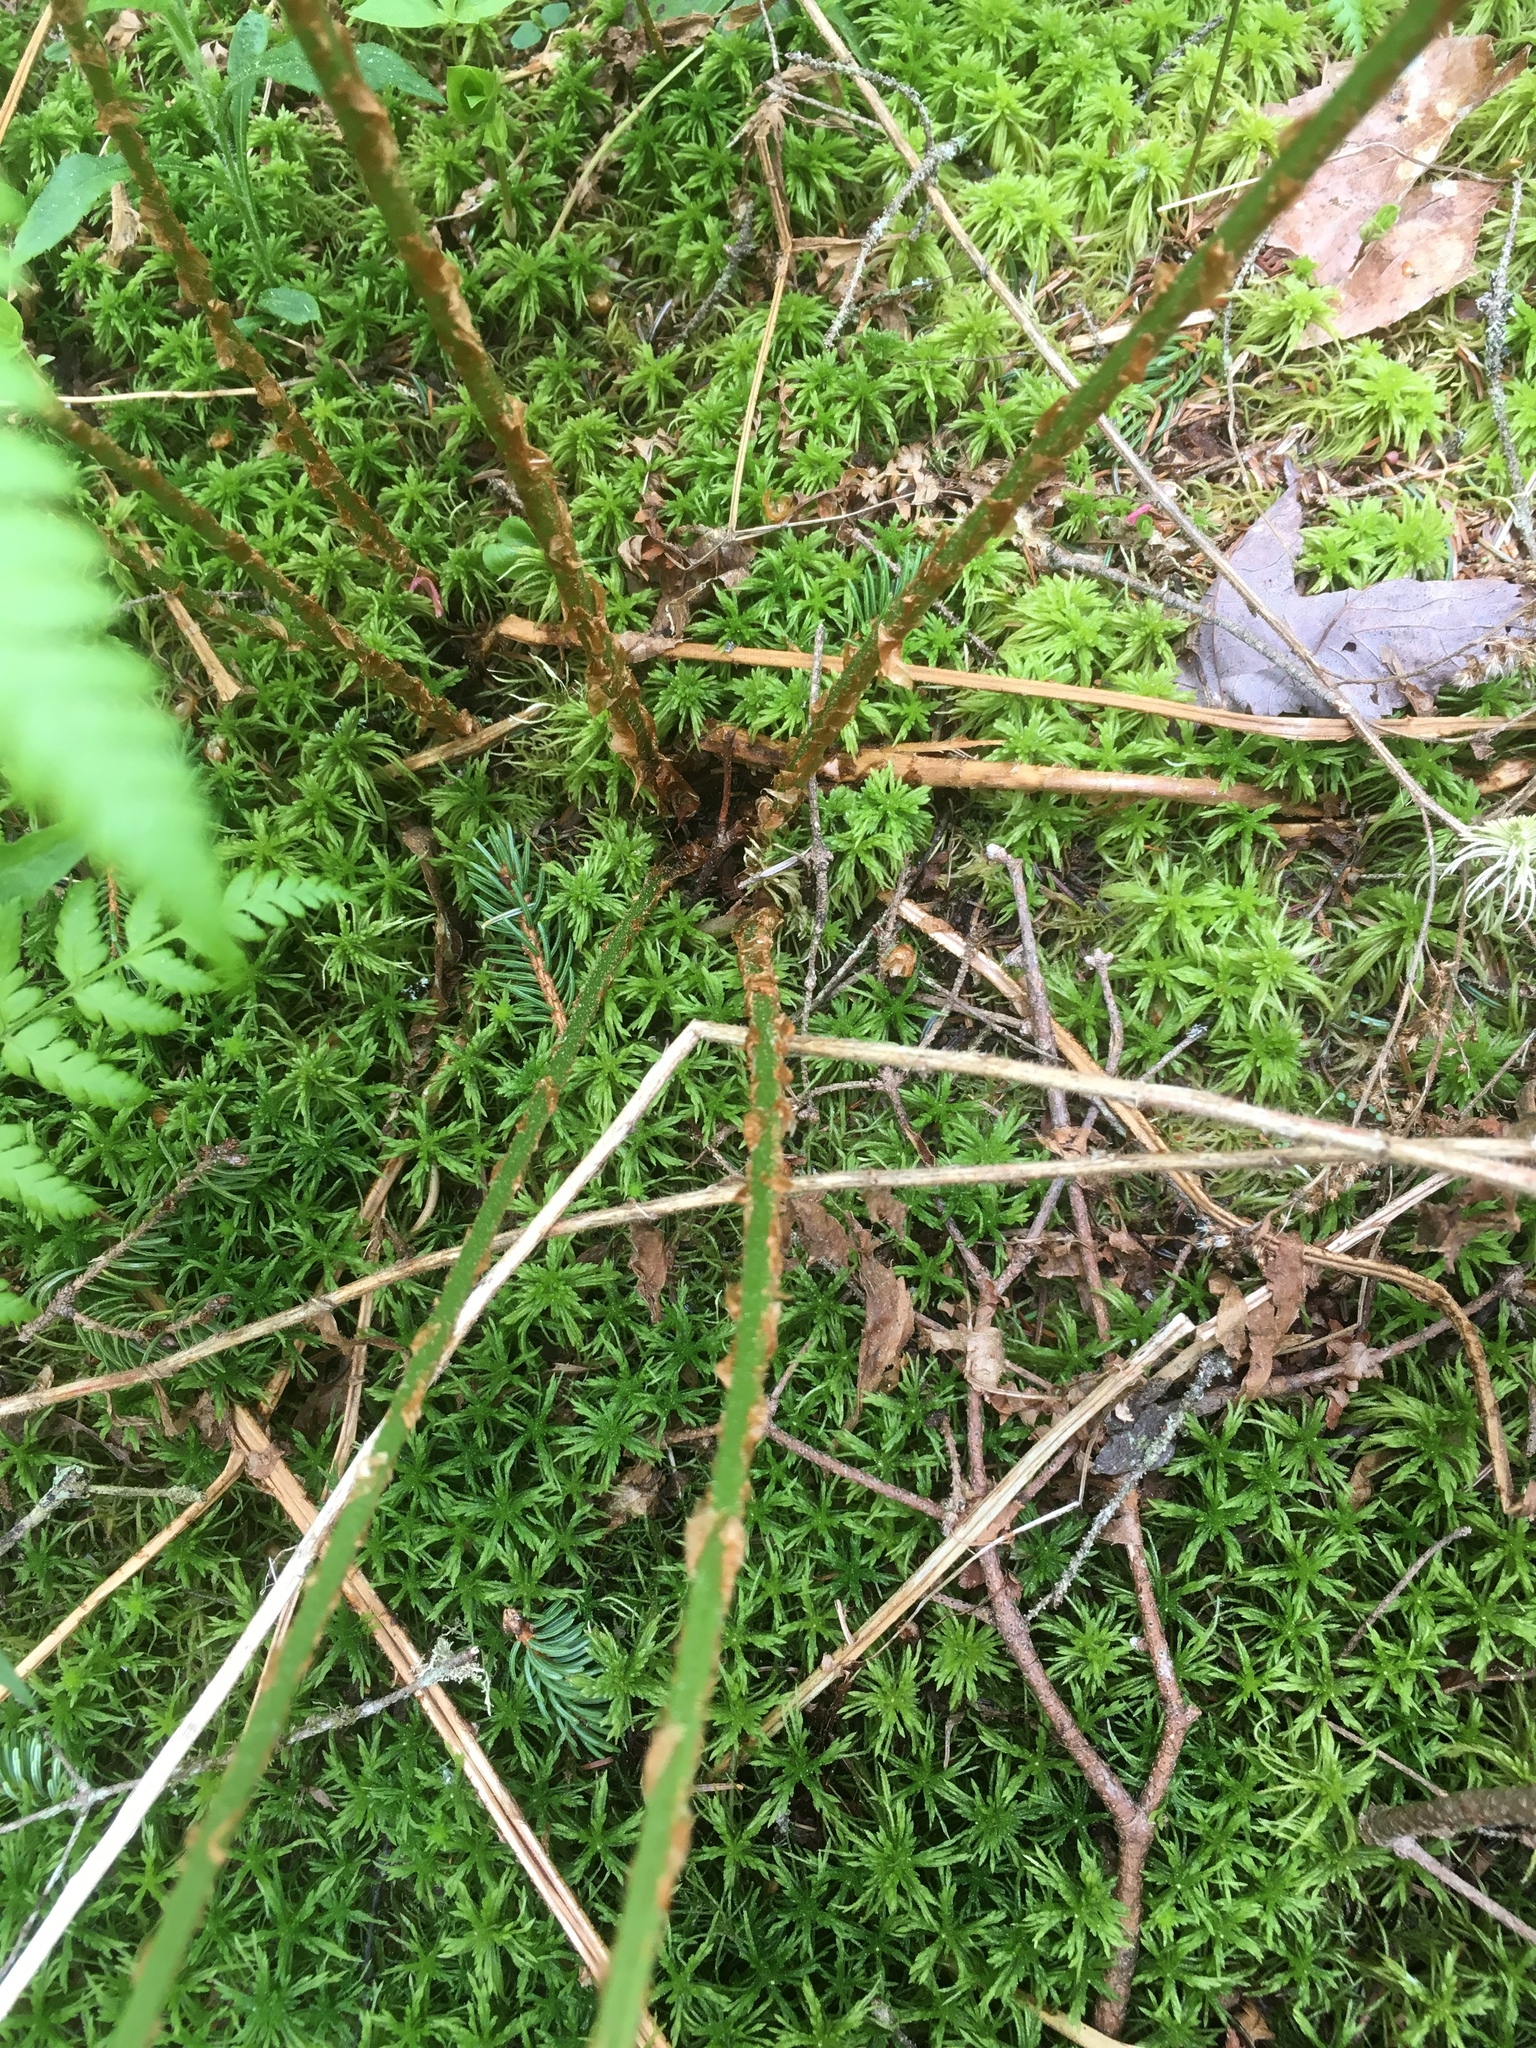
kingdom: Plantae
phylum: Tracheophyta
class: Polypodiopsida
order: Polypodiales
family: Dryopteridaceae
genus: Dryopteris
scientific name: Dryopteris campyloptera
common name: Mountain wood fern
